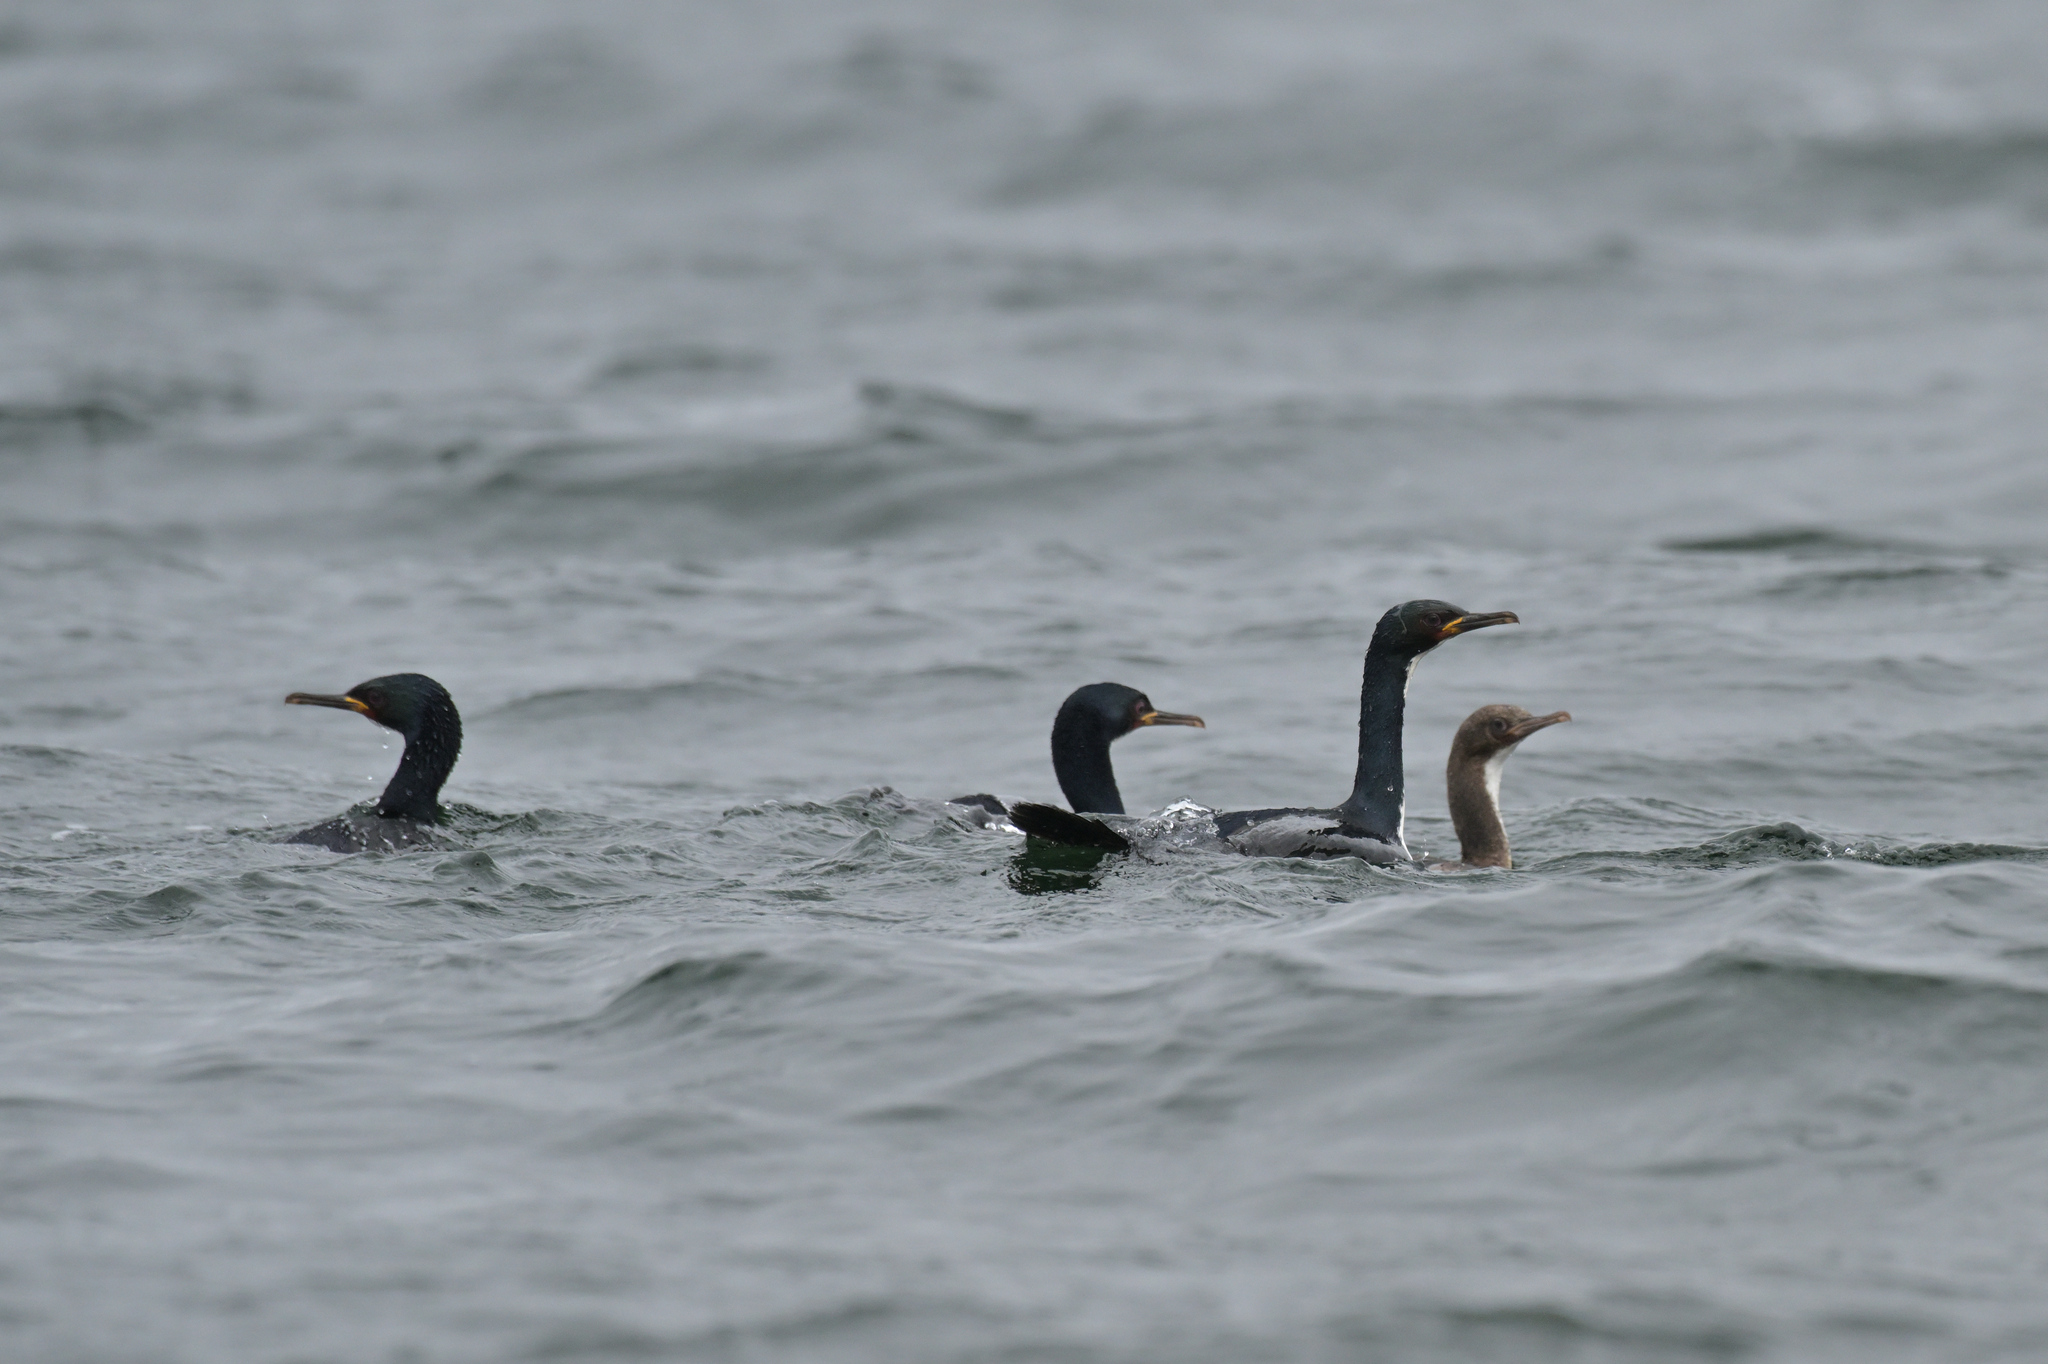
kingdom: Animalia
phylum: Chordata
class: Aves
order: Suliformes
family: Phalacrocoracidae
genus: Leucocarbo
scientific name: Leucocarbo colensoi
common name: Auckland shag
